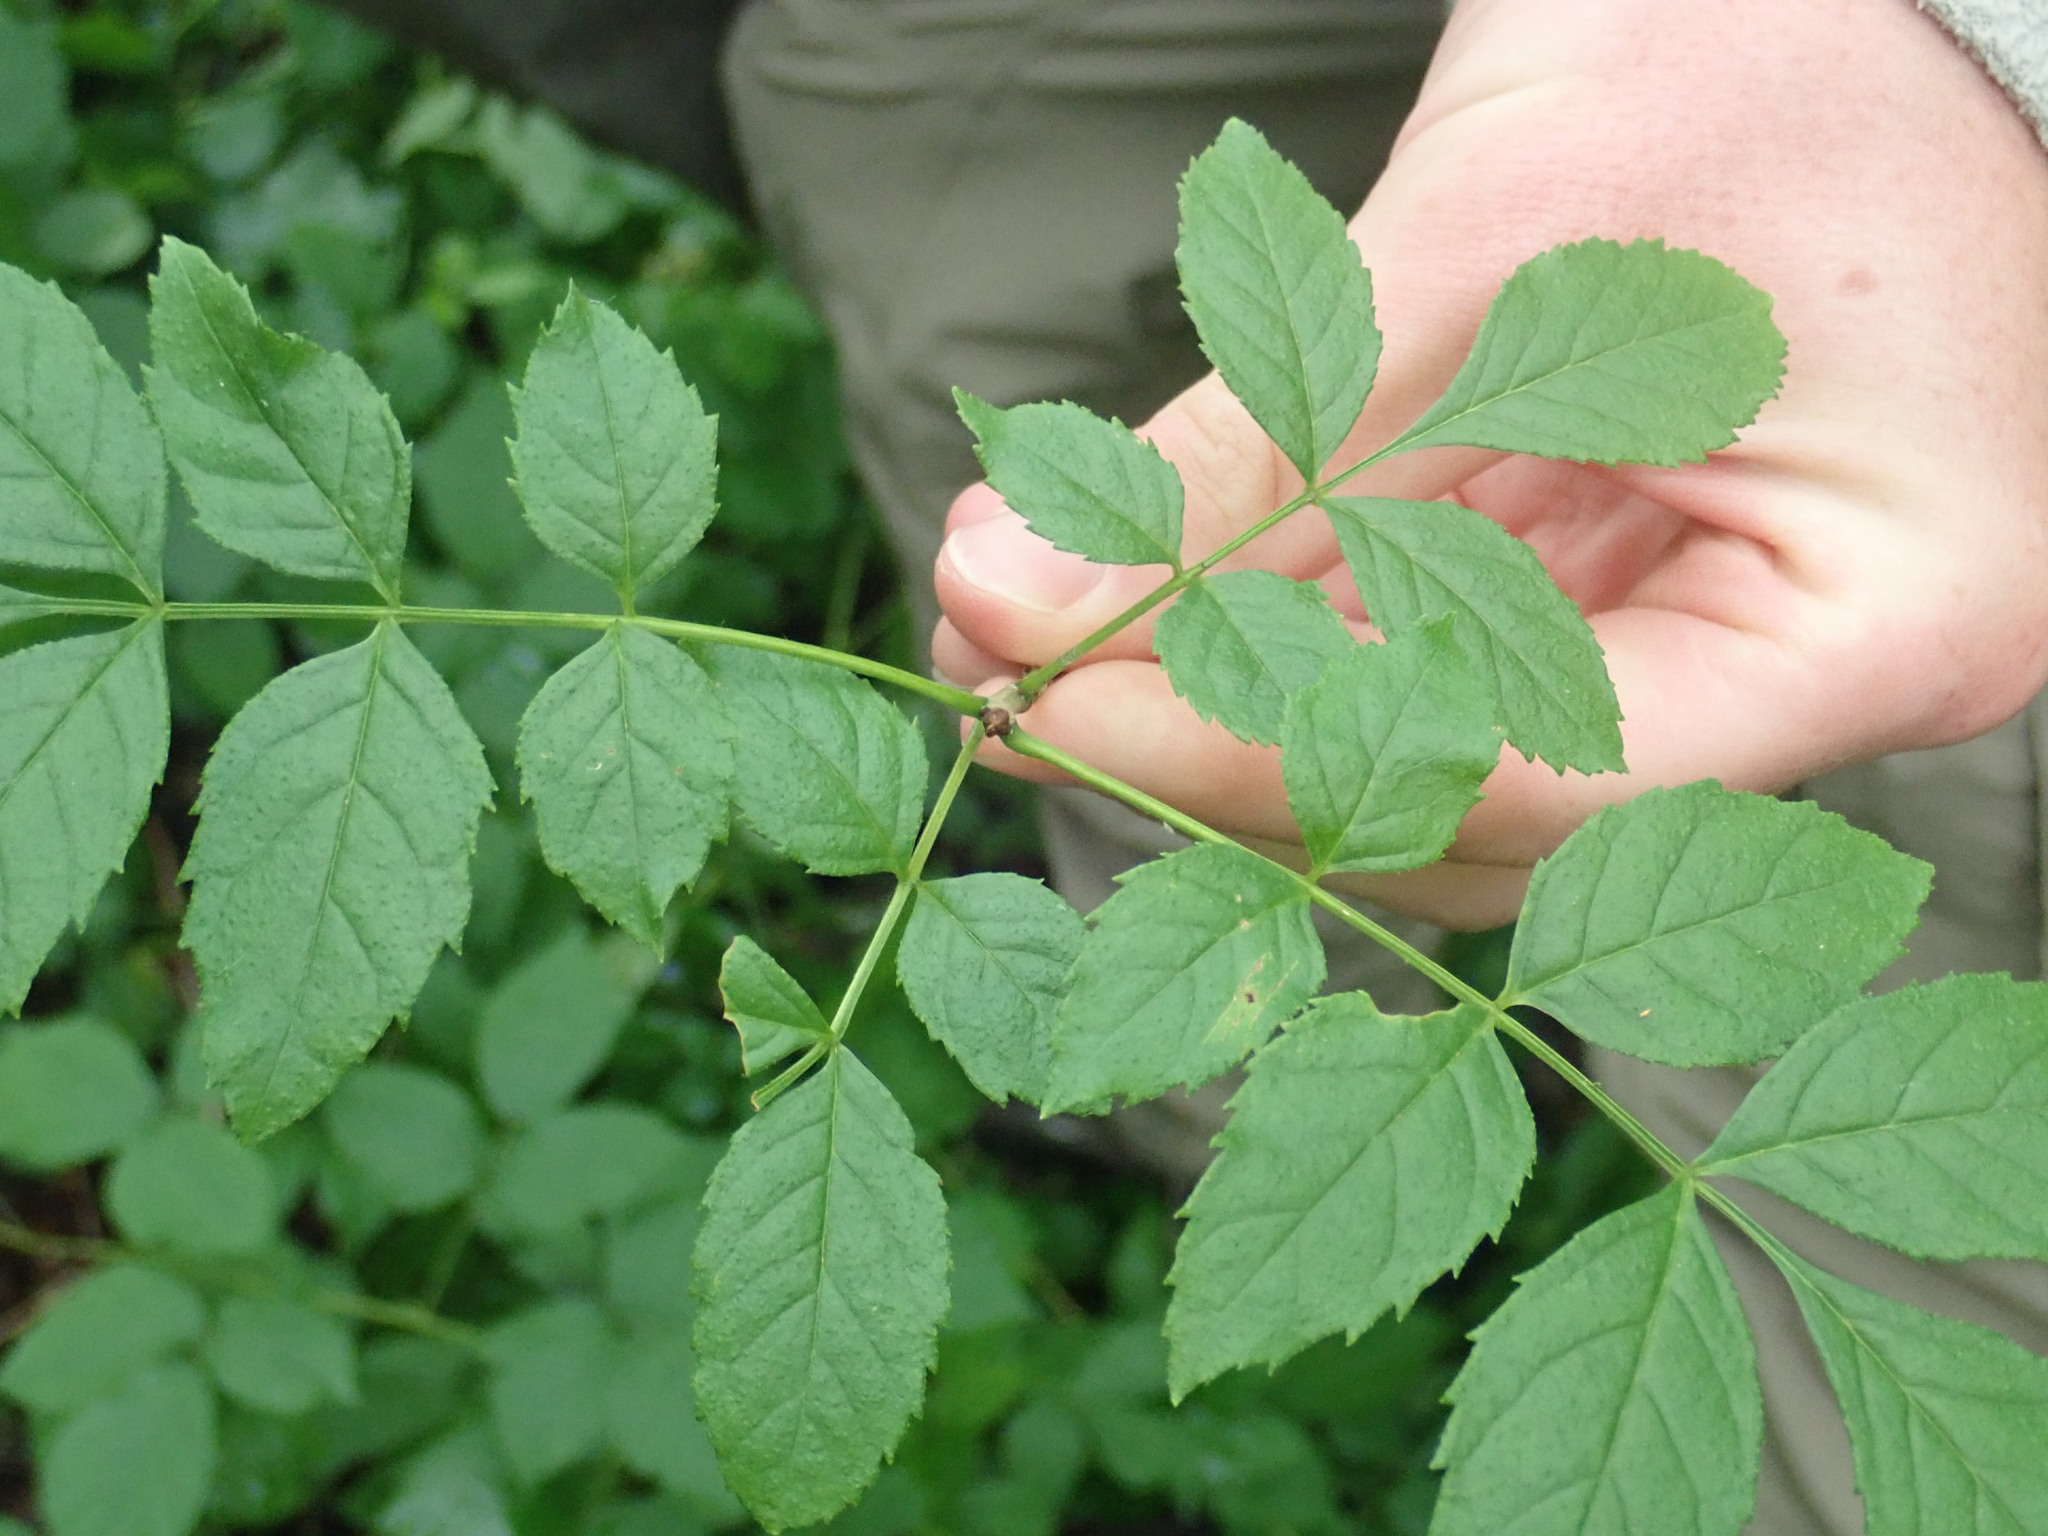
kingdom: Plantae
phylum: Tracheophyta
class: Magnoliopsida
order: Lamiales
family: Oleaceae
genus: Fraxinus
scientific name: Fraxinus excelsior
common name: European ash
